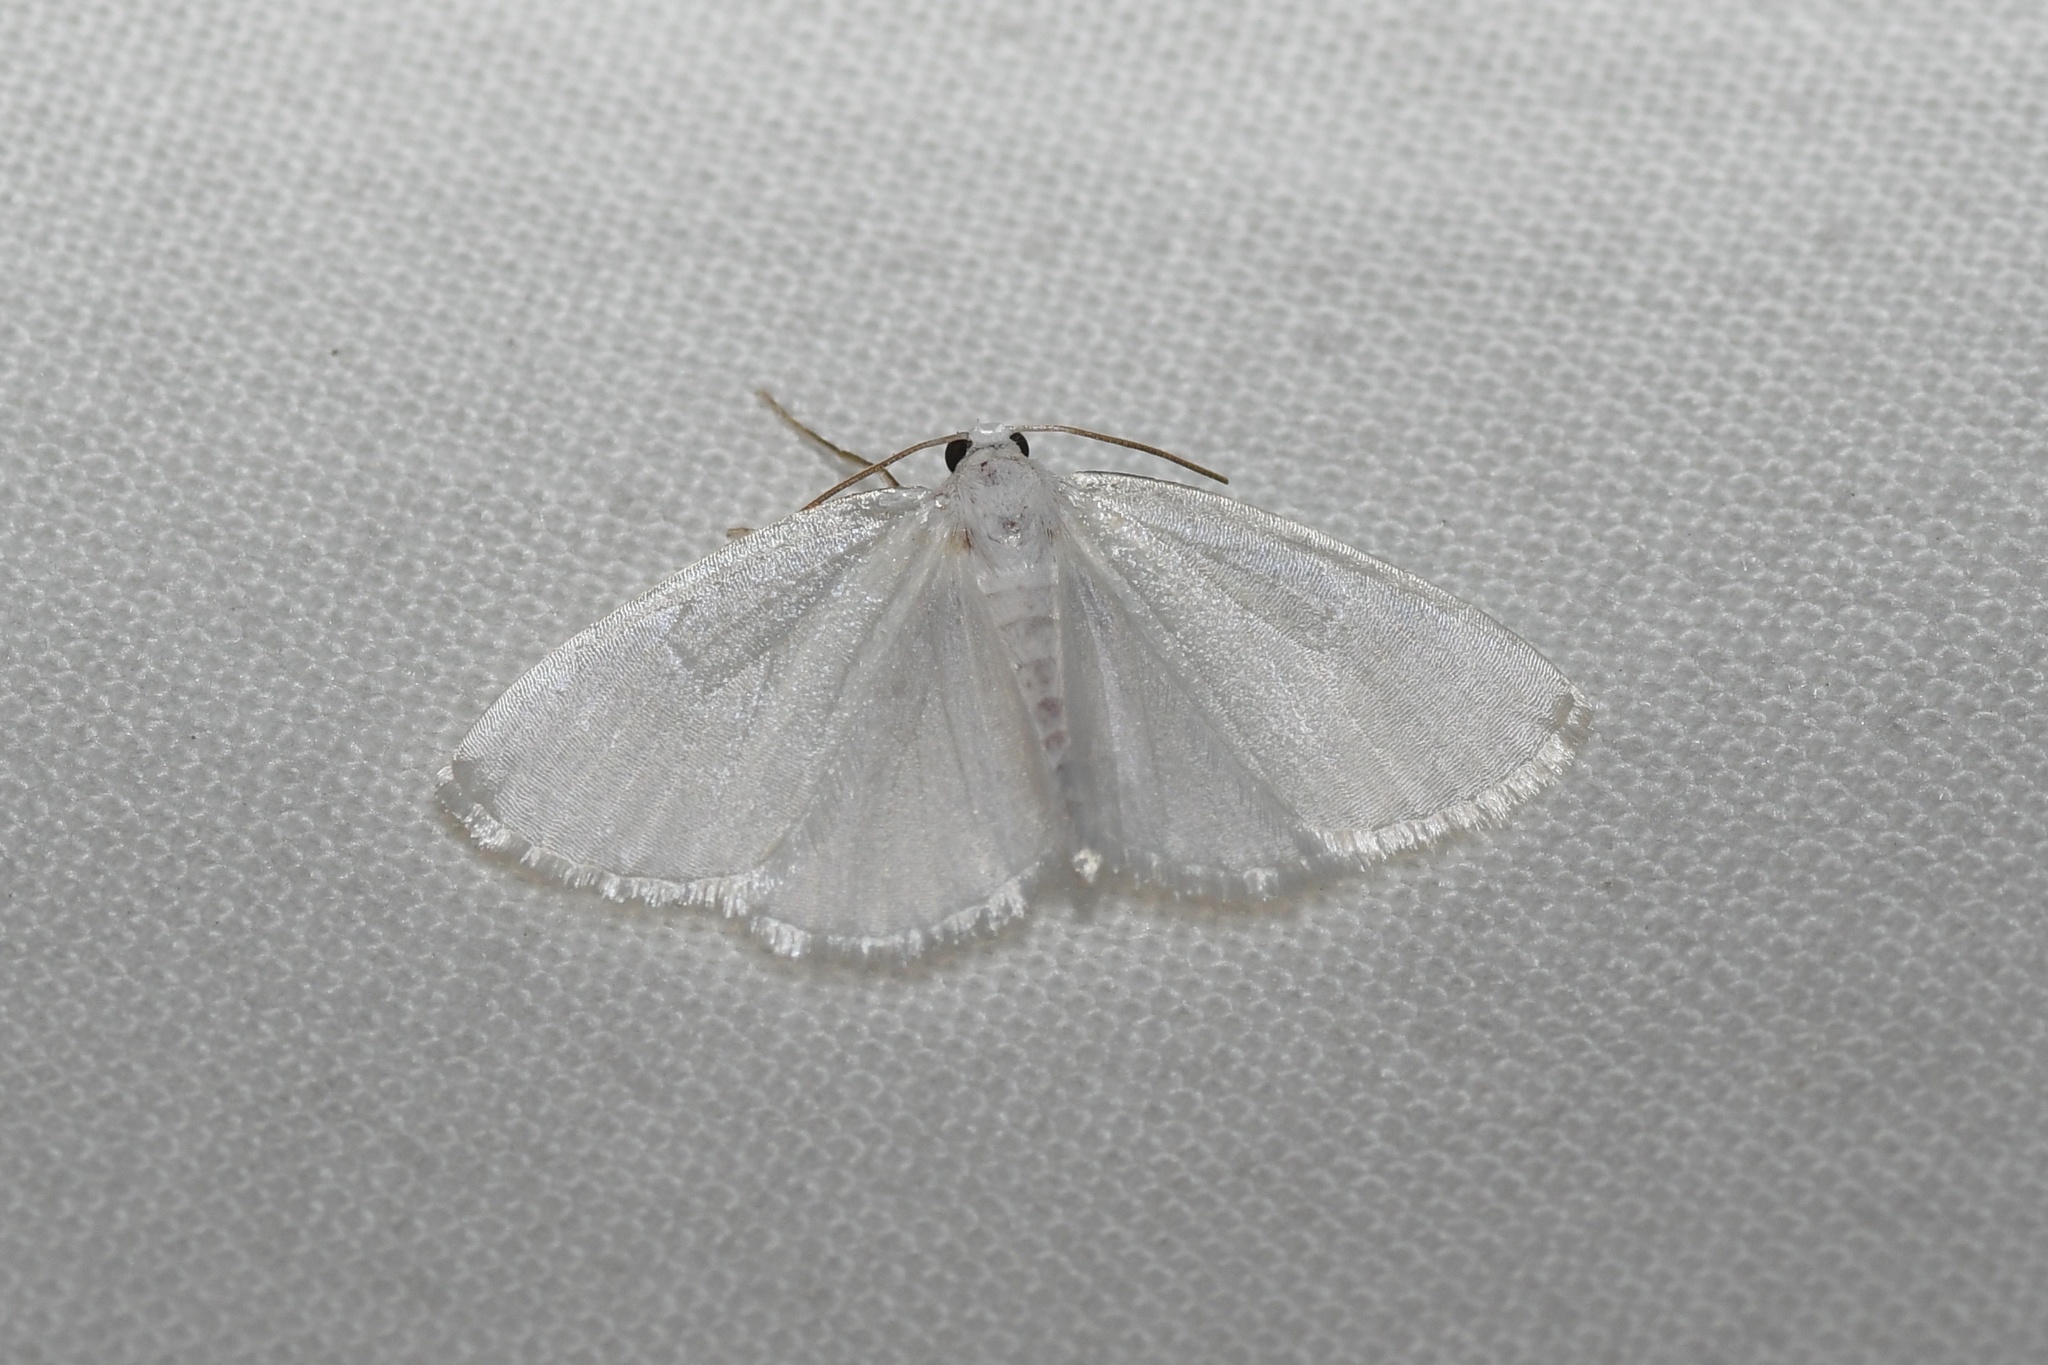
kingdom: Animalia
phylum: Arthropoda
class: Insecta
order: Lepidoptera
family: Geometridae
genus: Lomographa
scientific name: Lomographa vestaliata
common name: White spring moth
